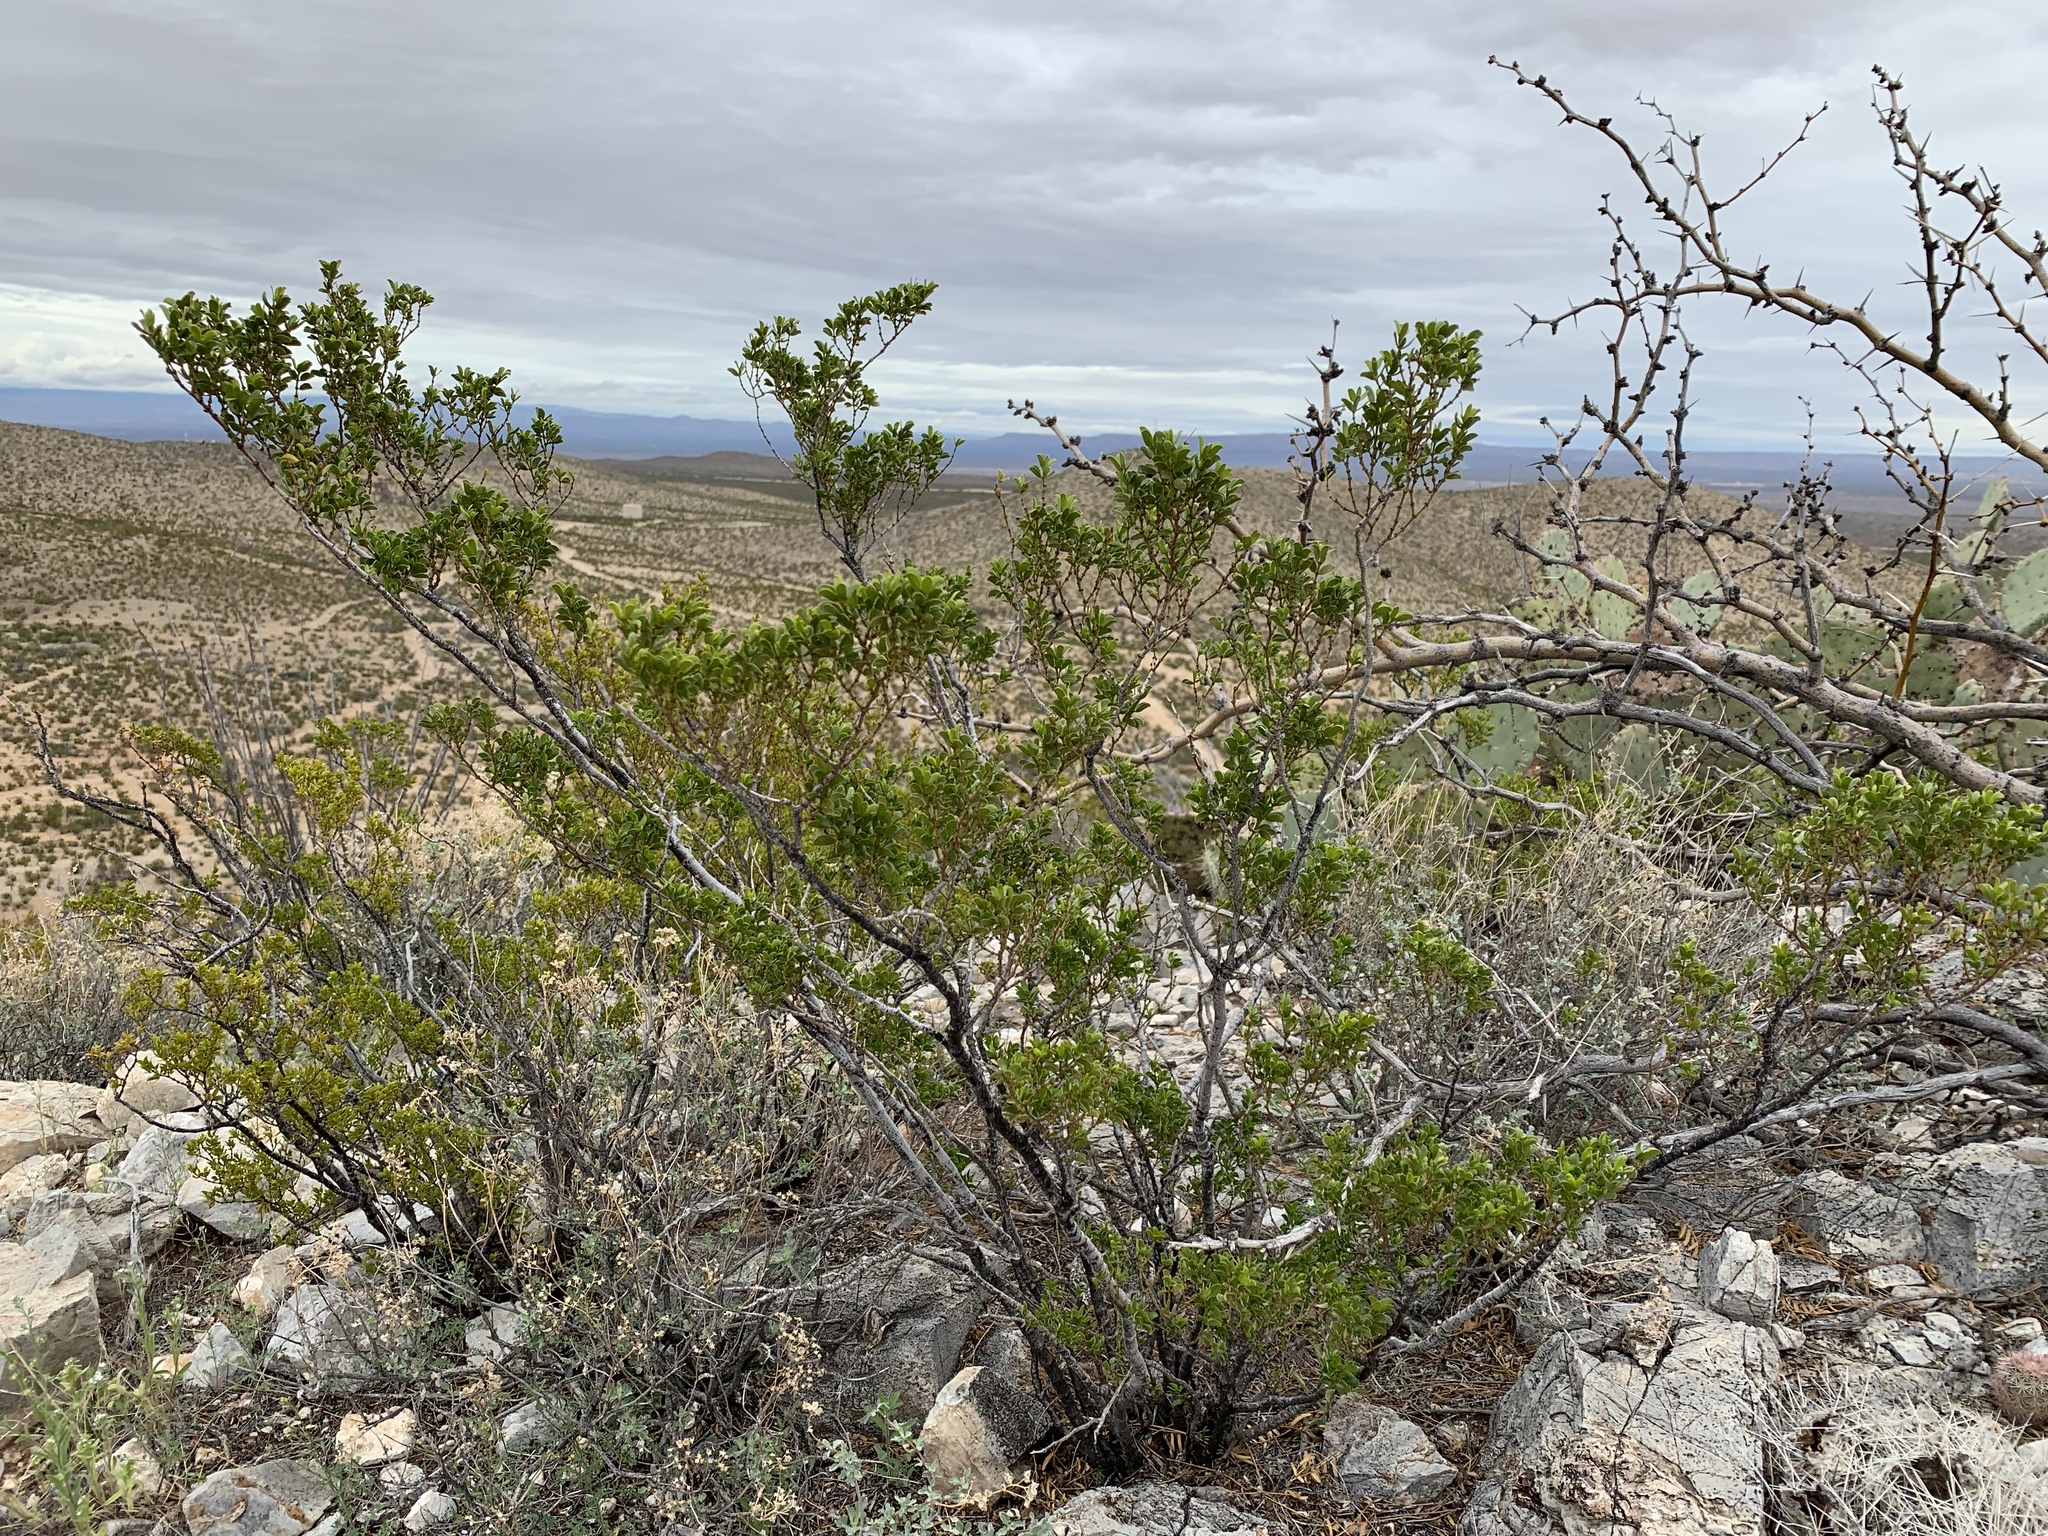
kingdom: Plantae
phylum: Tracheophyta
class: Magnoliopsida
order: Zygophyllales
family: Zygophyllaceae
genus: Larrea
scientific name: Larrea tridentata
